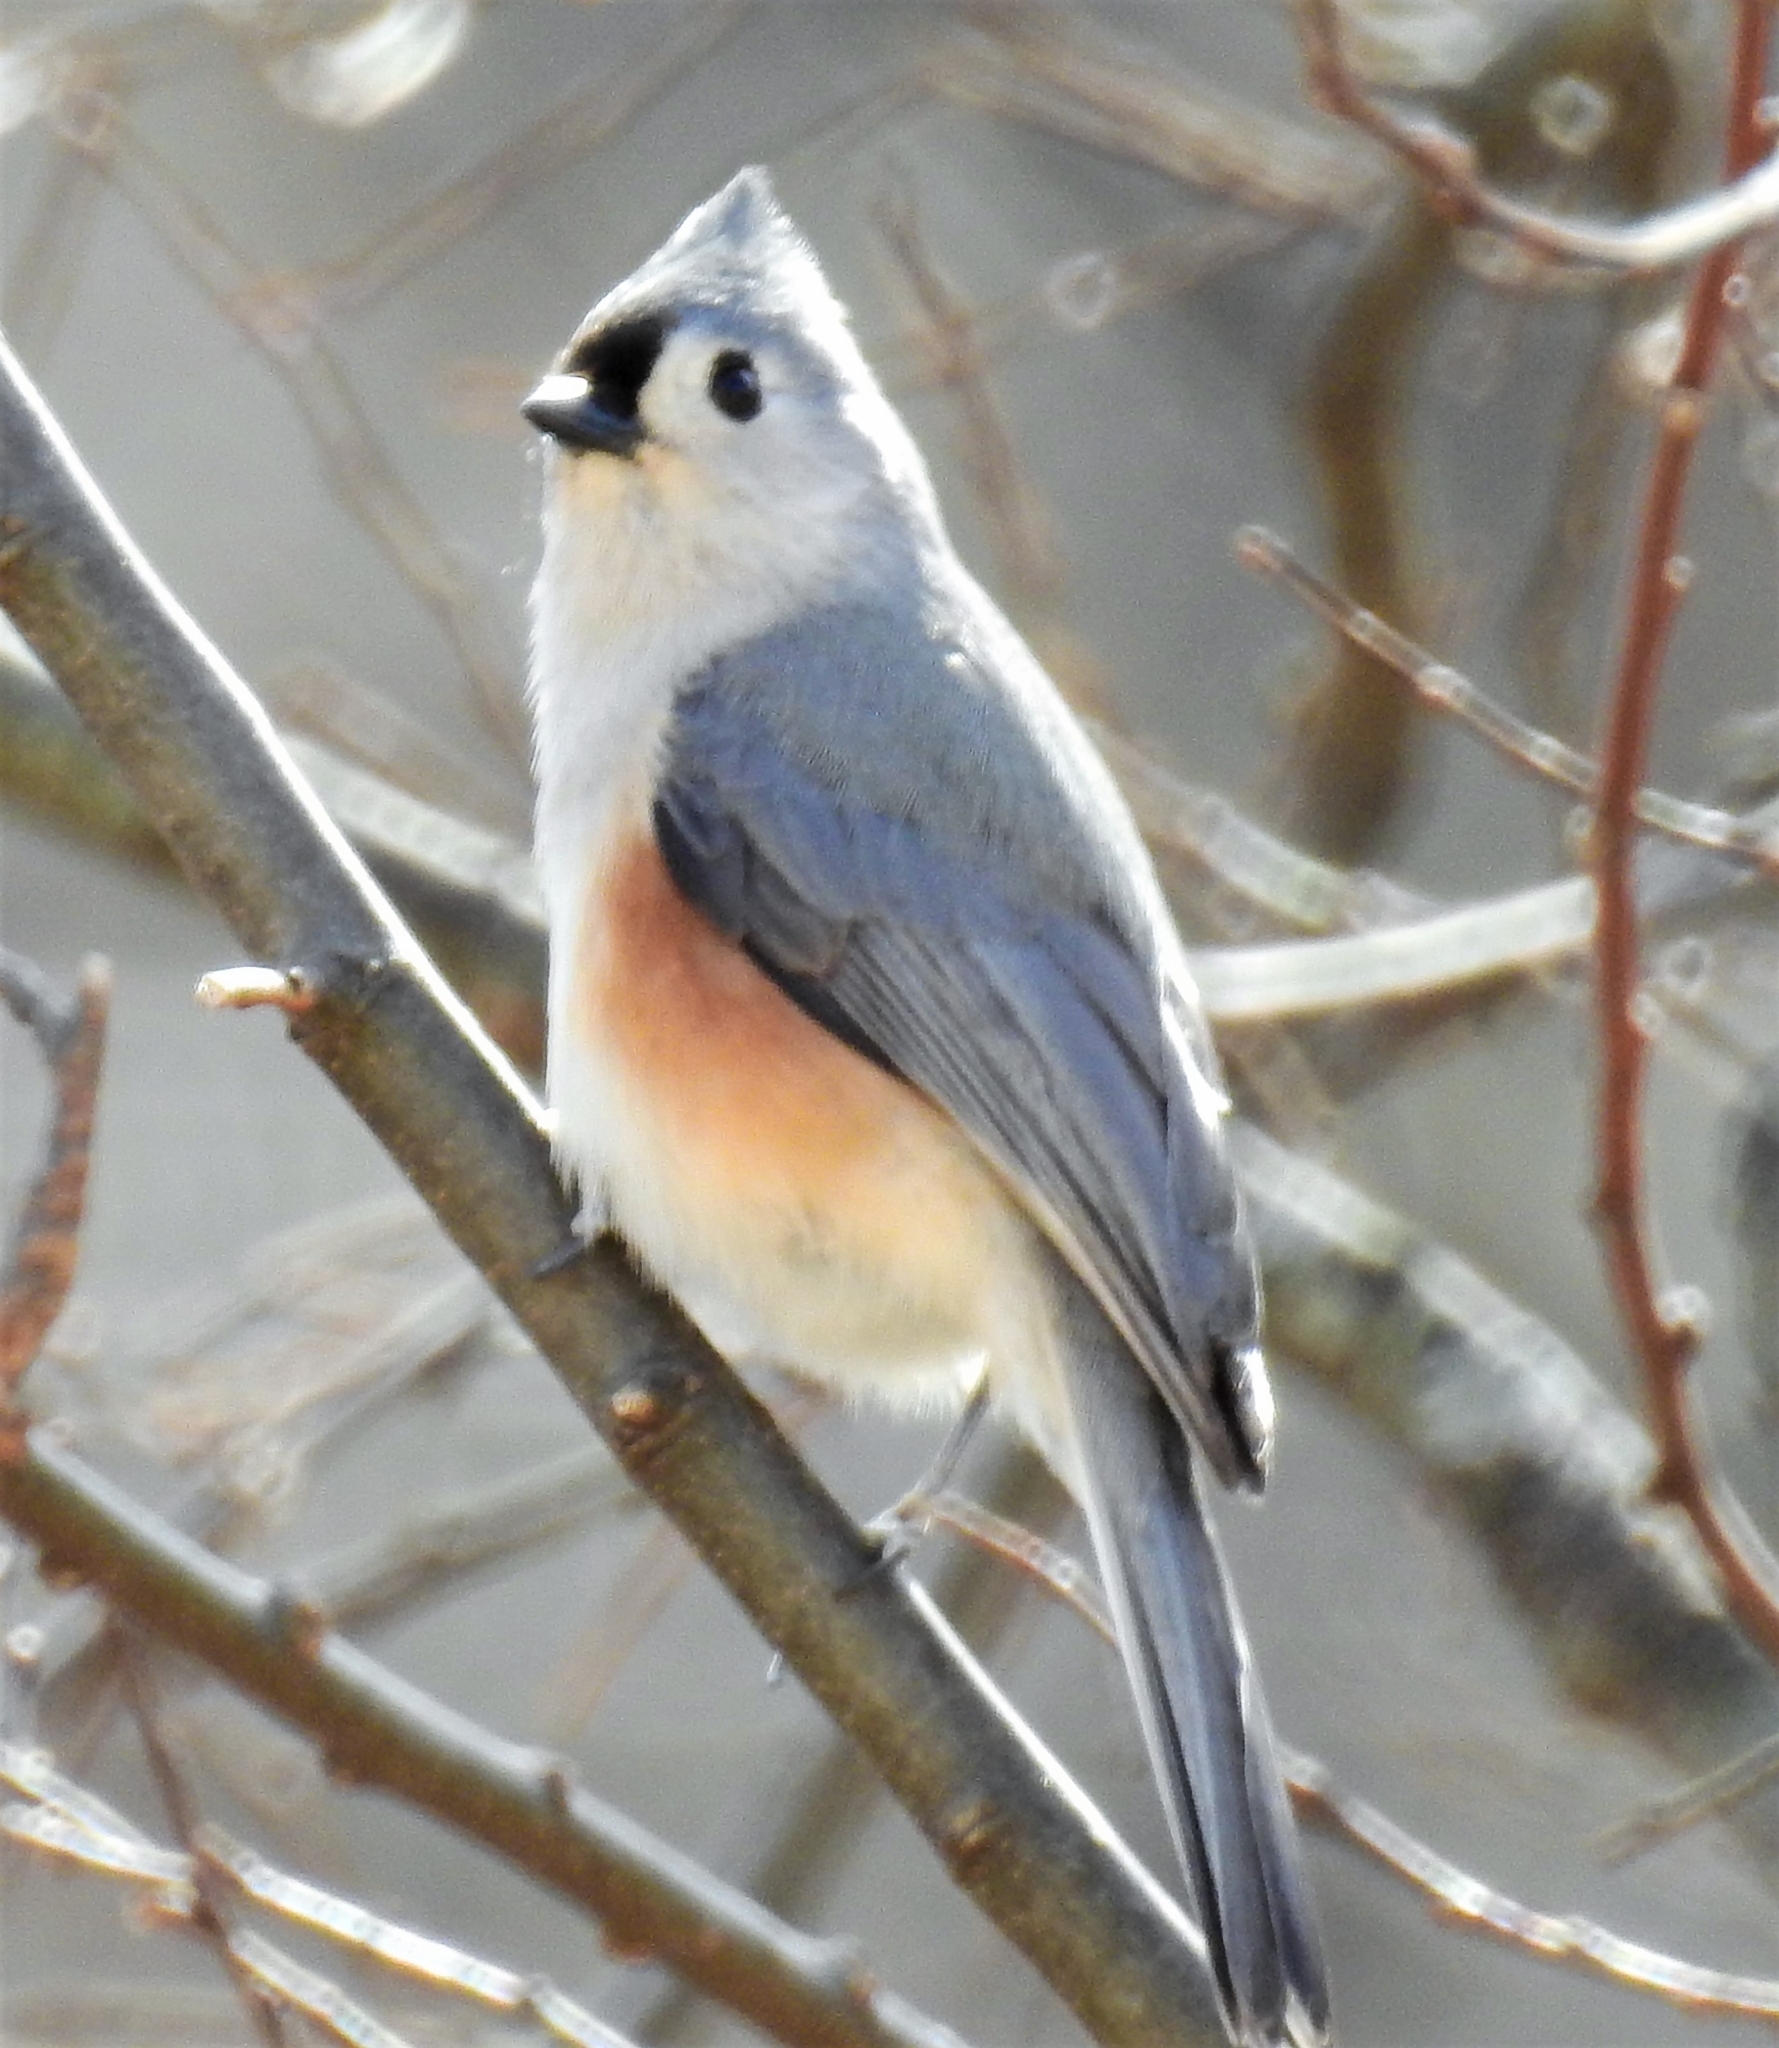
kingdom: Animalia
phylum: Chordata
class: Aves
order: Passeriformes
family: Paridae
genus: Baeolophus
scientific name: Baeolophus bicolor
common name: Tufted titmouse
